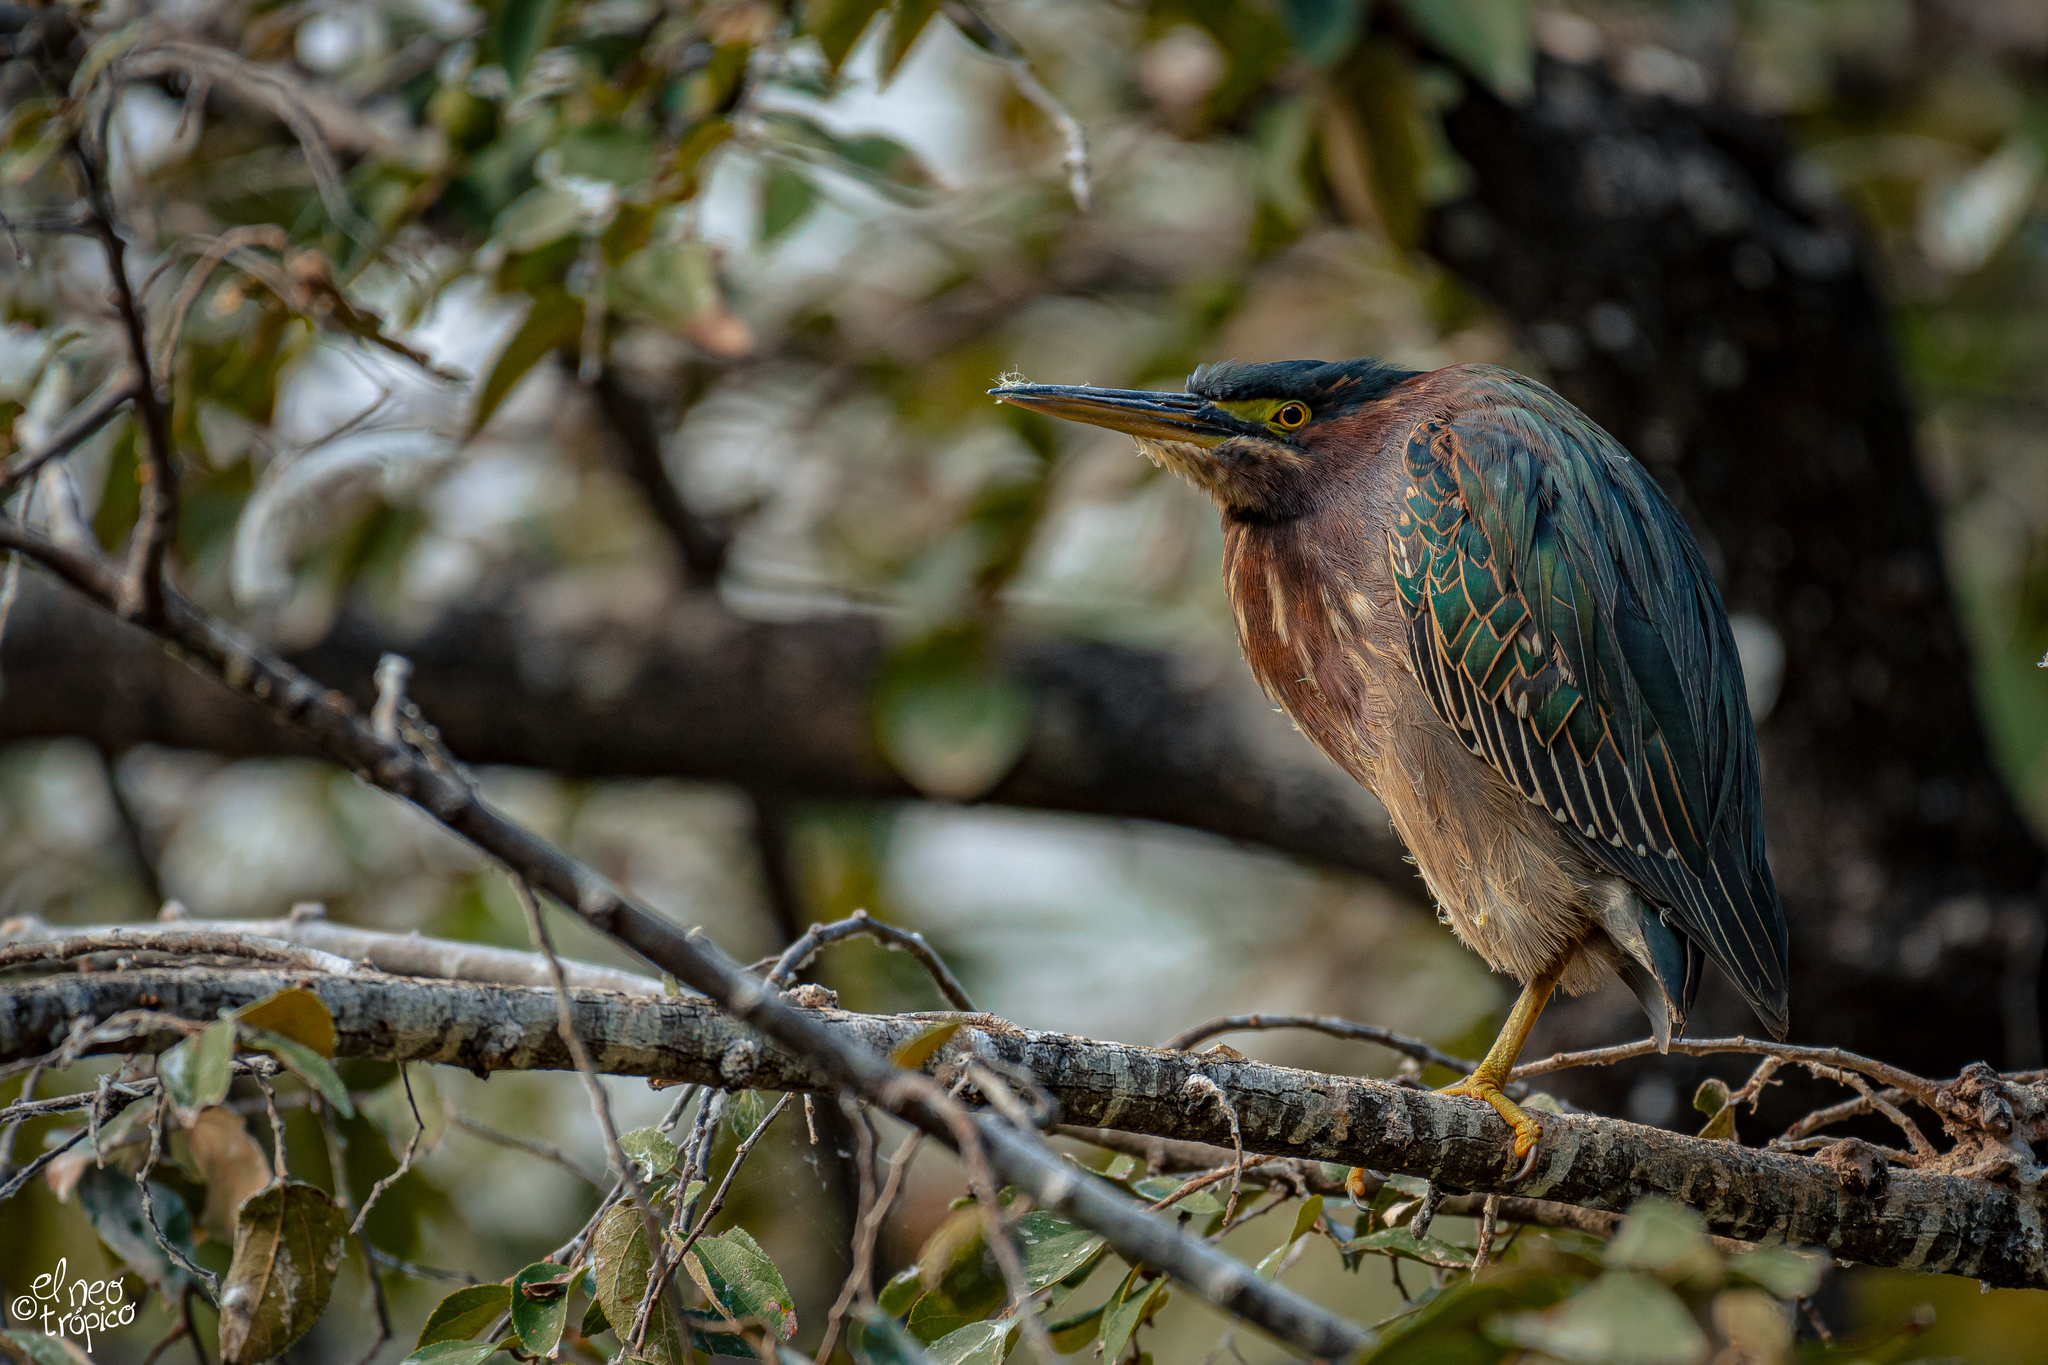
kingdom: Animalia
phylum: Chordata
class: Aves
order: Pelecaniformes
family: Ardeidae
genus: Butorides
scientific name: Butorides virescens
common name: Green heron
